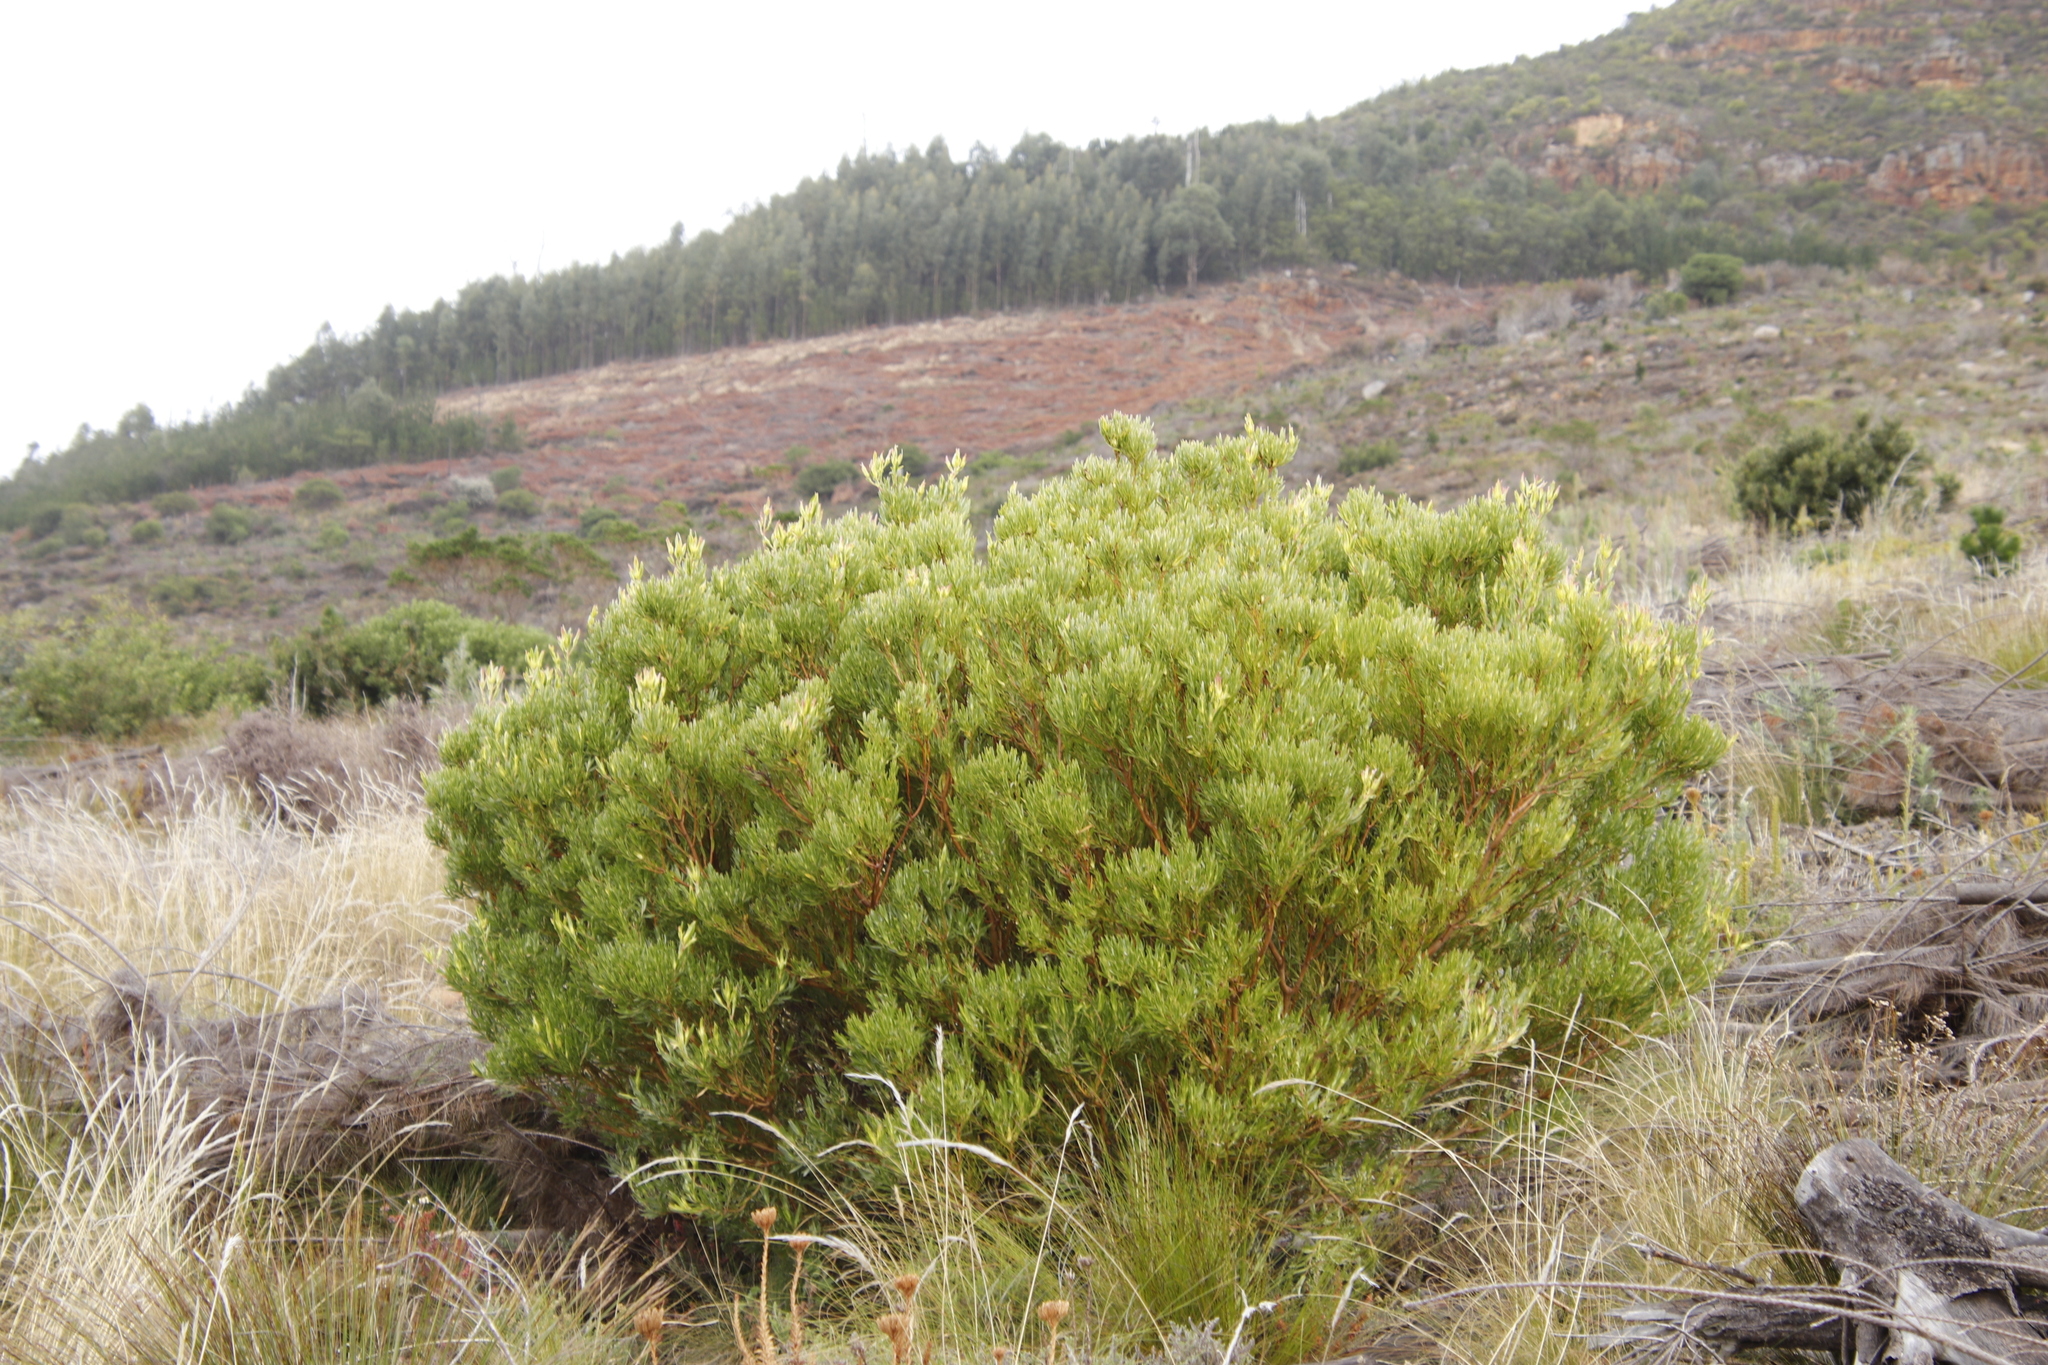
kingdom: Plantae
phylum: Tracheophyta
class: Magnoliopsida
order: Proteales
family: Proteaceae
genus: Leucadendron
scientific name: Leucadendron xanthoconus
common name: Sickle-leaf conebush
